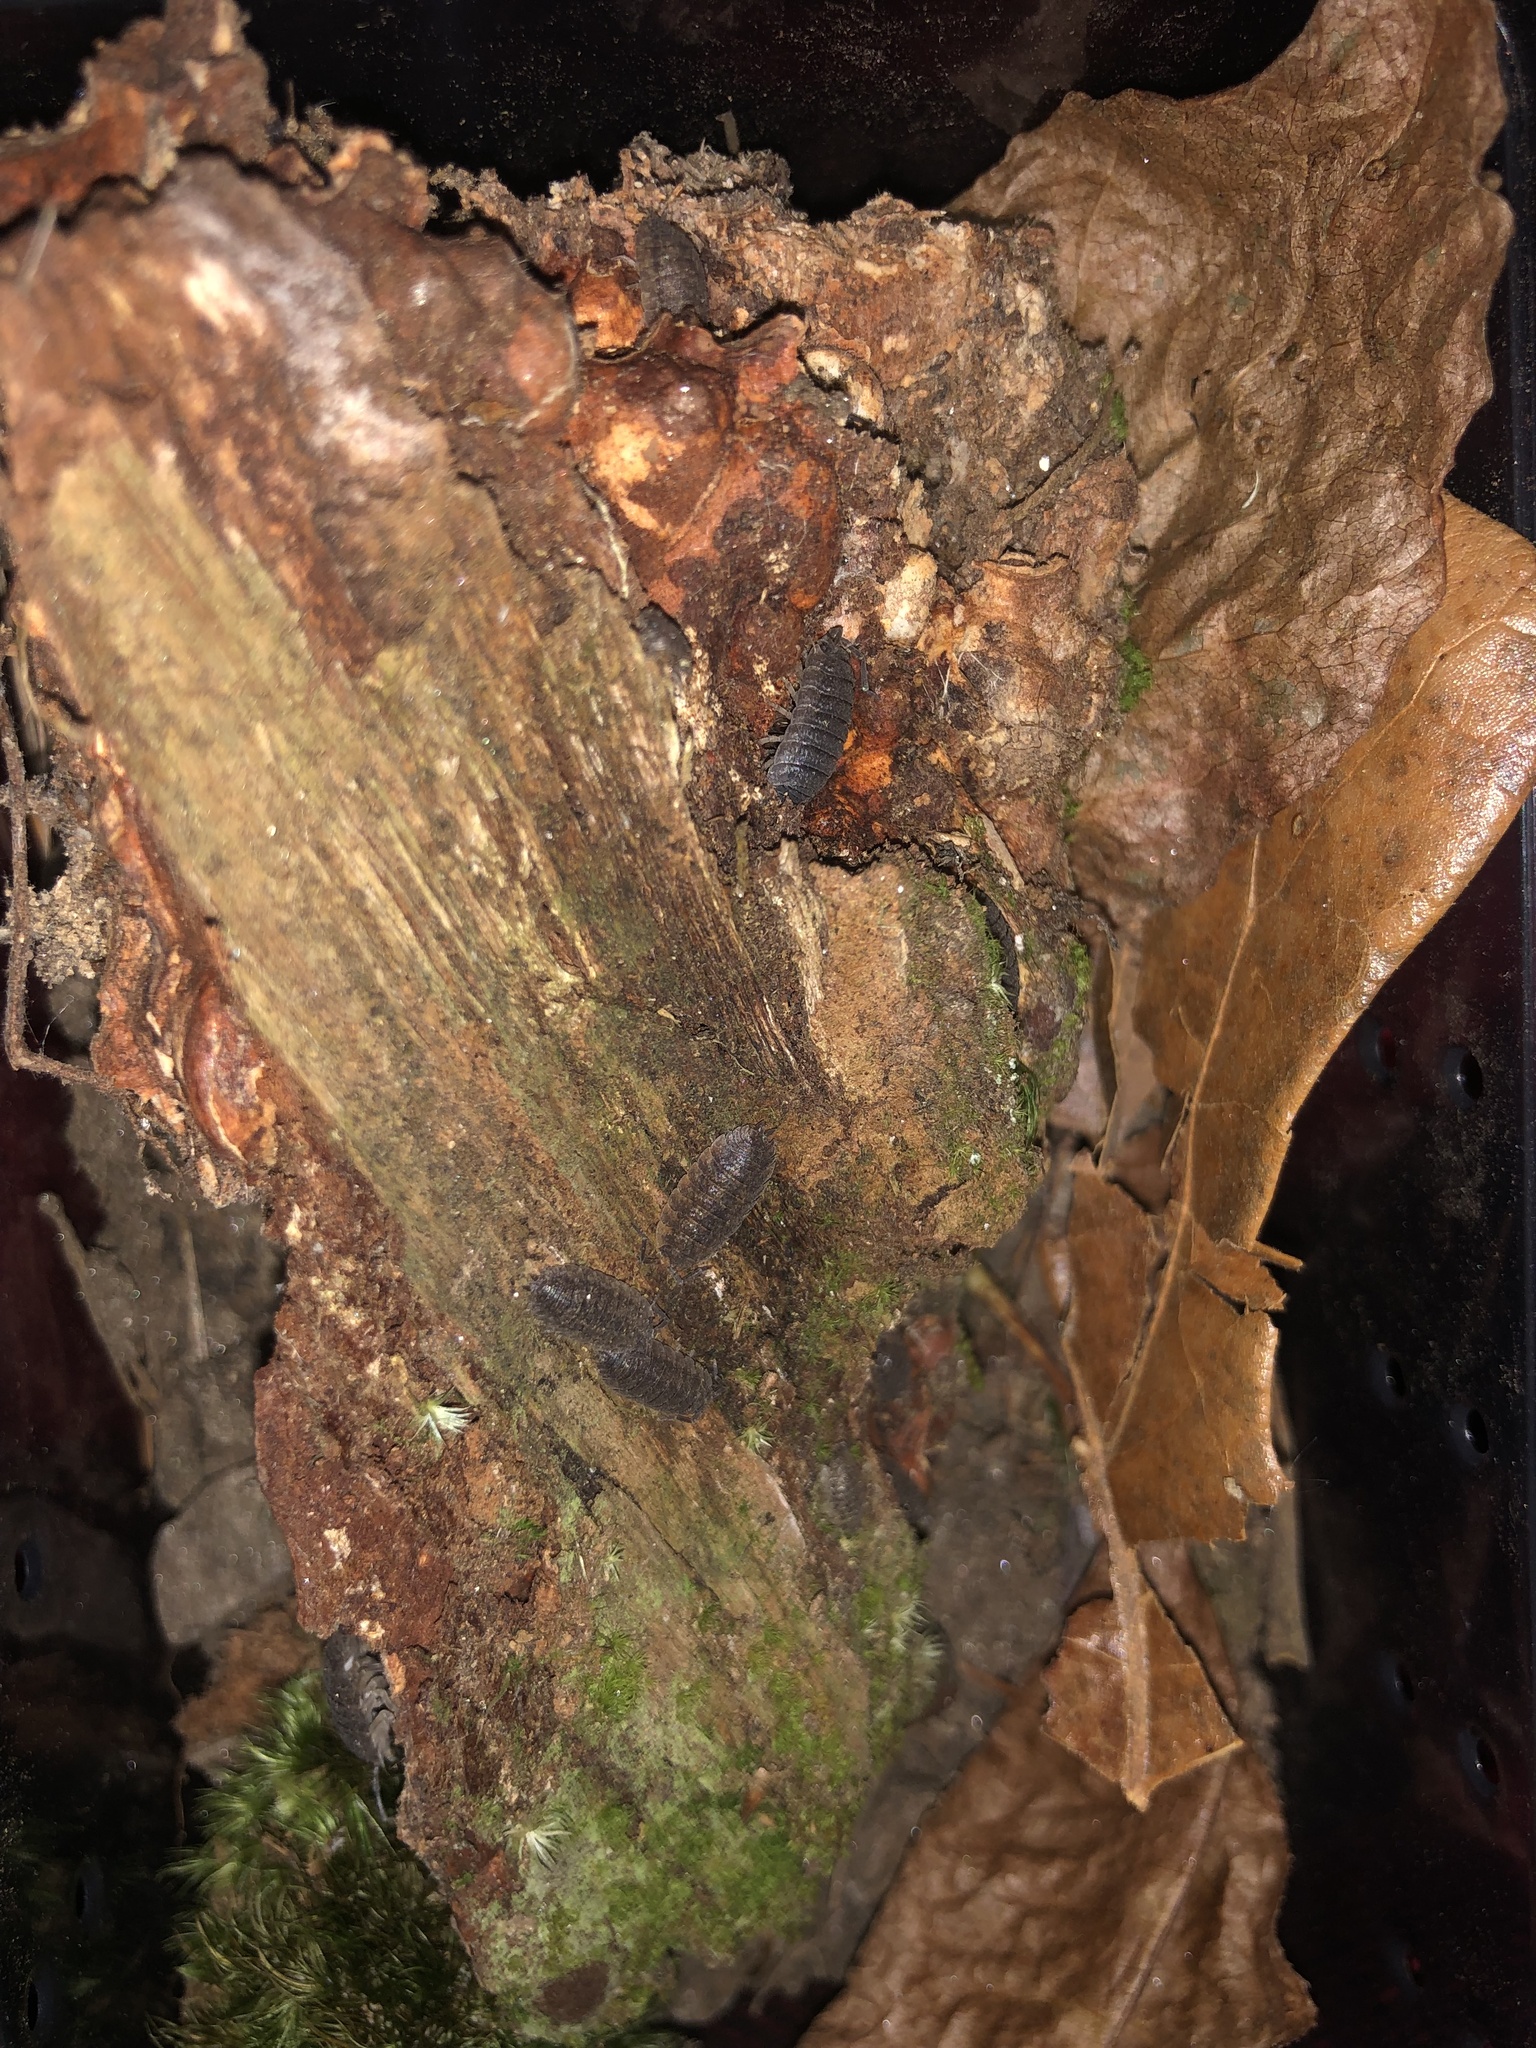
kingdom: Animalia
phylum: Arthropoda
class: Malacostraca
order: Isopoda
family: Porcellionidae
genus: Porcellio
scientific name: Porcellio scaber
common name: Common rough woodlouse
